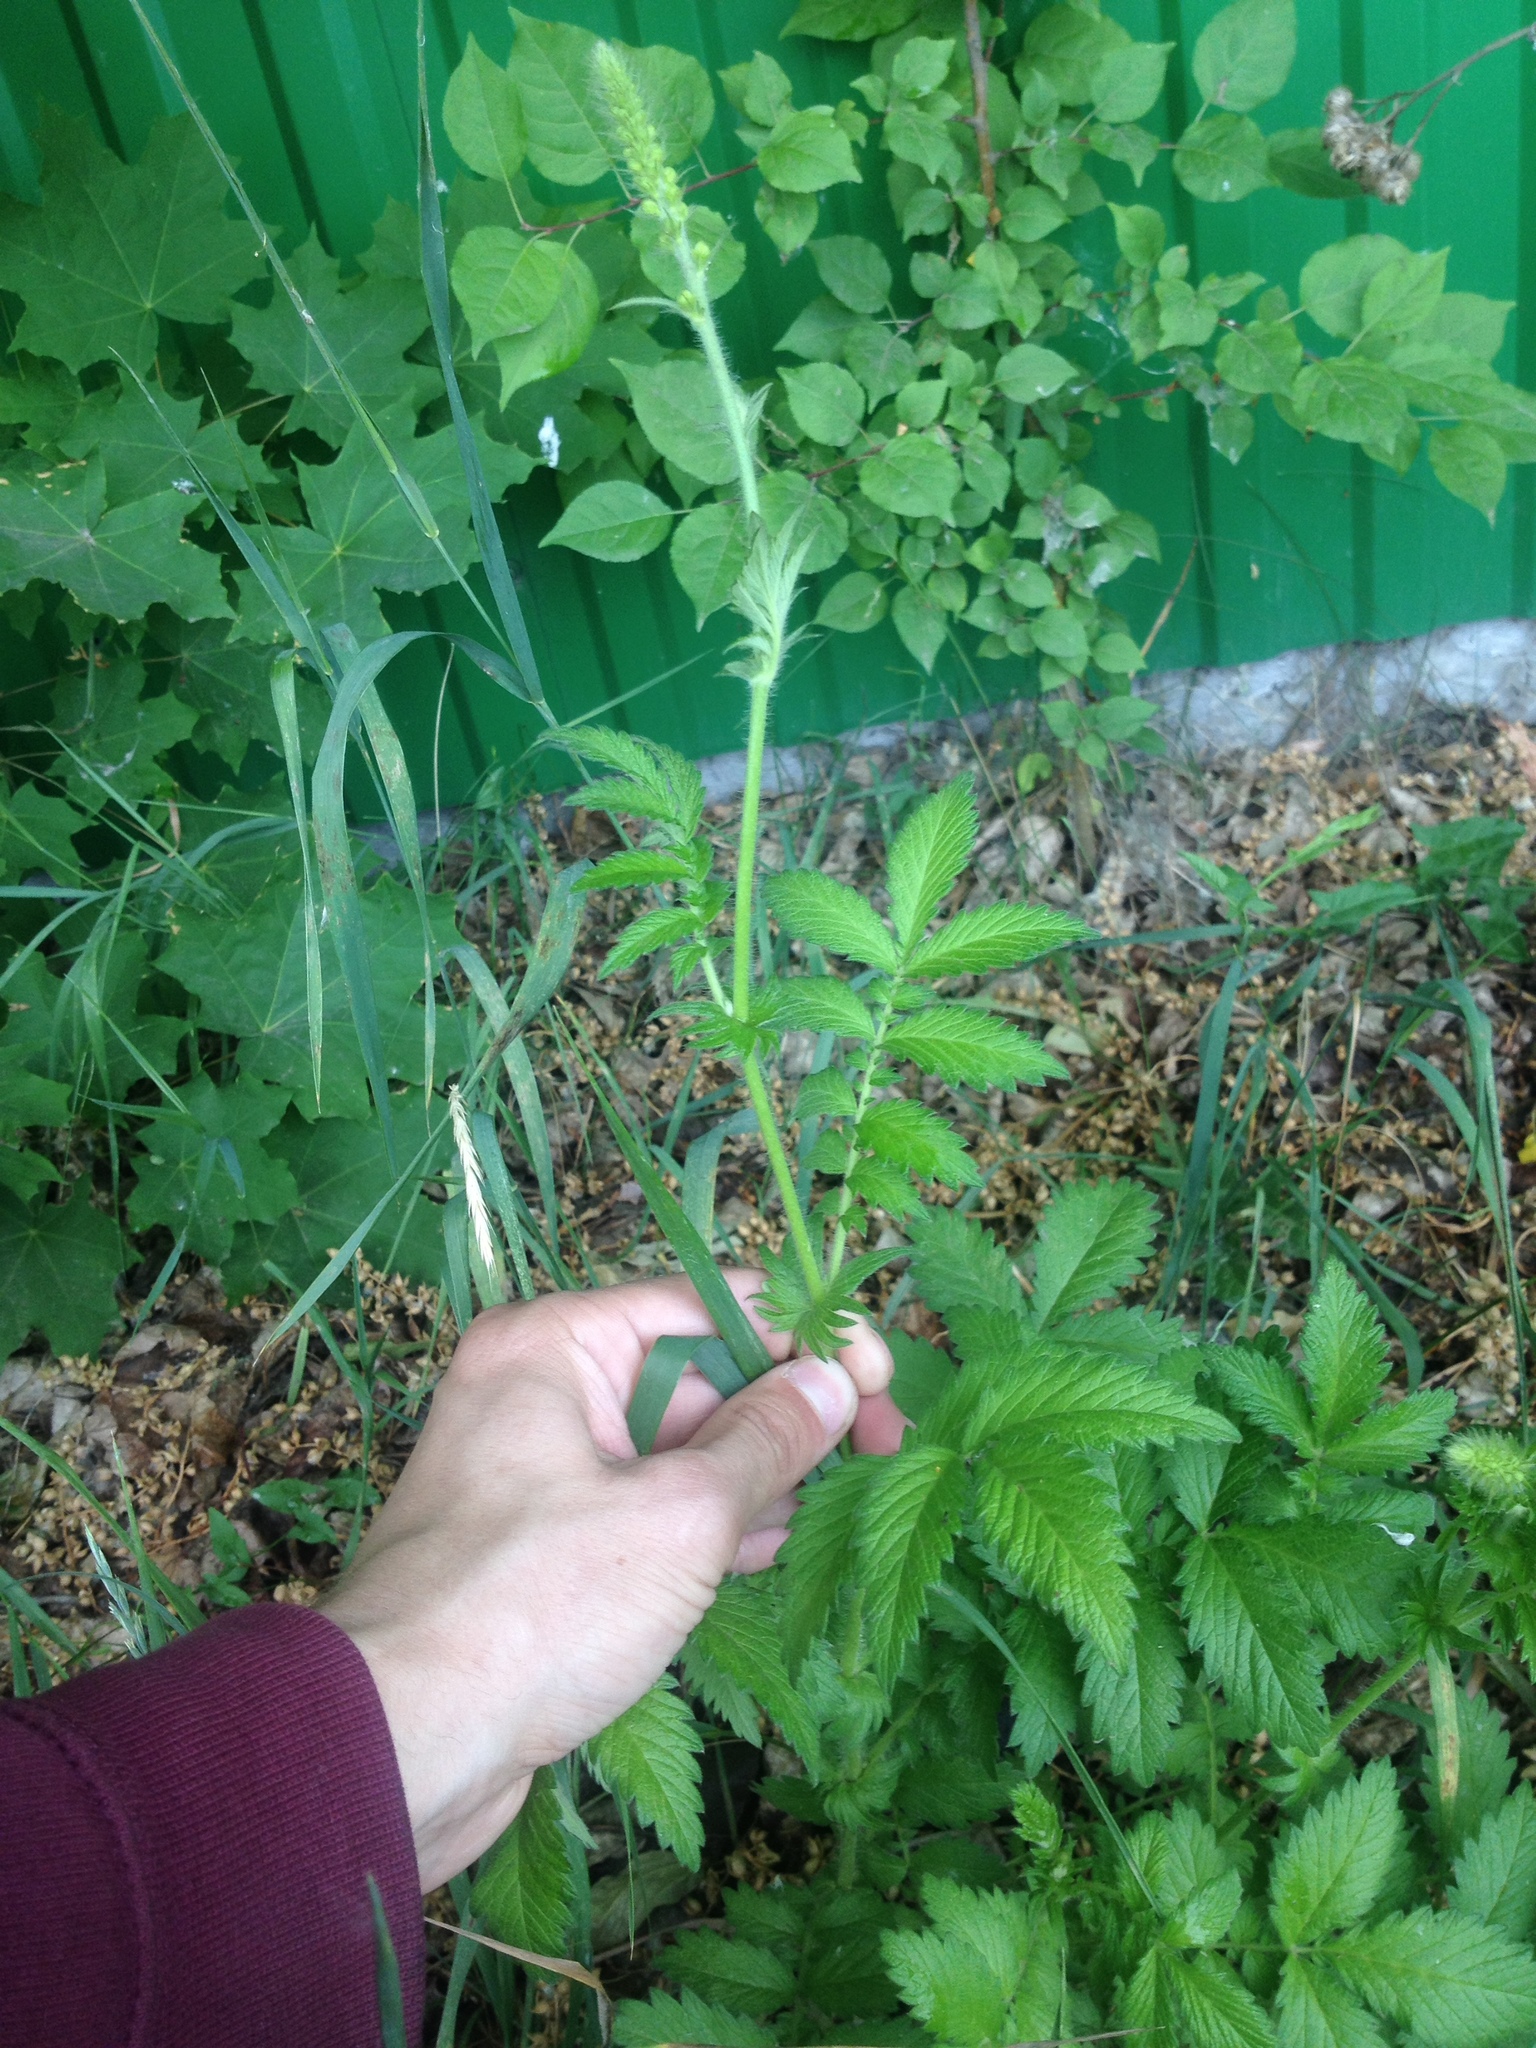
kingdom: Plantae
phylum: Tracheophyta
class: Magnoliopsida
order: Rosales
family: Rosaceae
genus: Agrimonia
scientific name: Agrimonia eupatoria
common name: Agrimony
